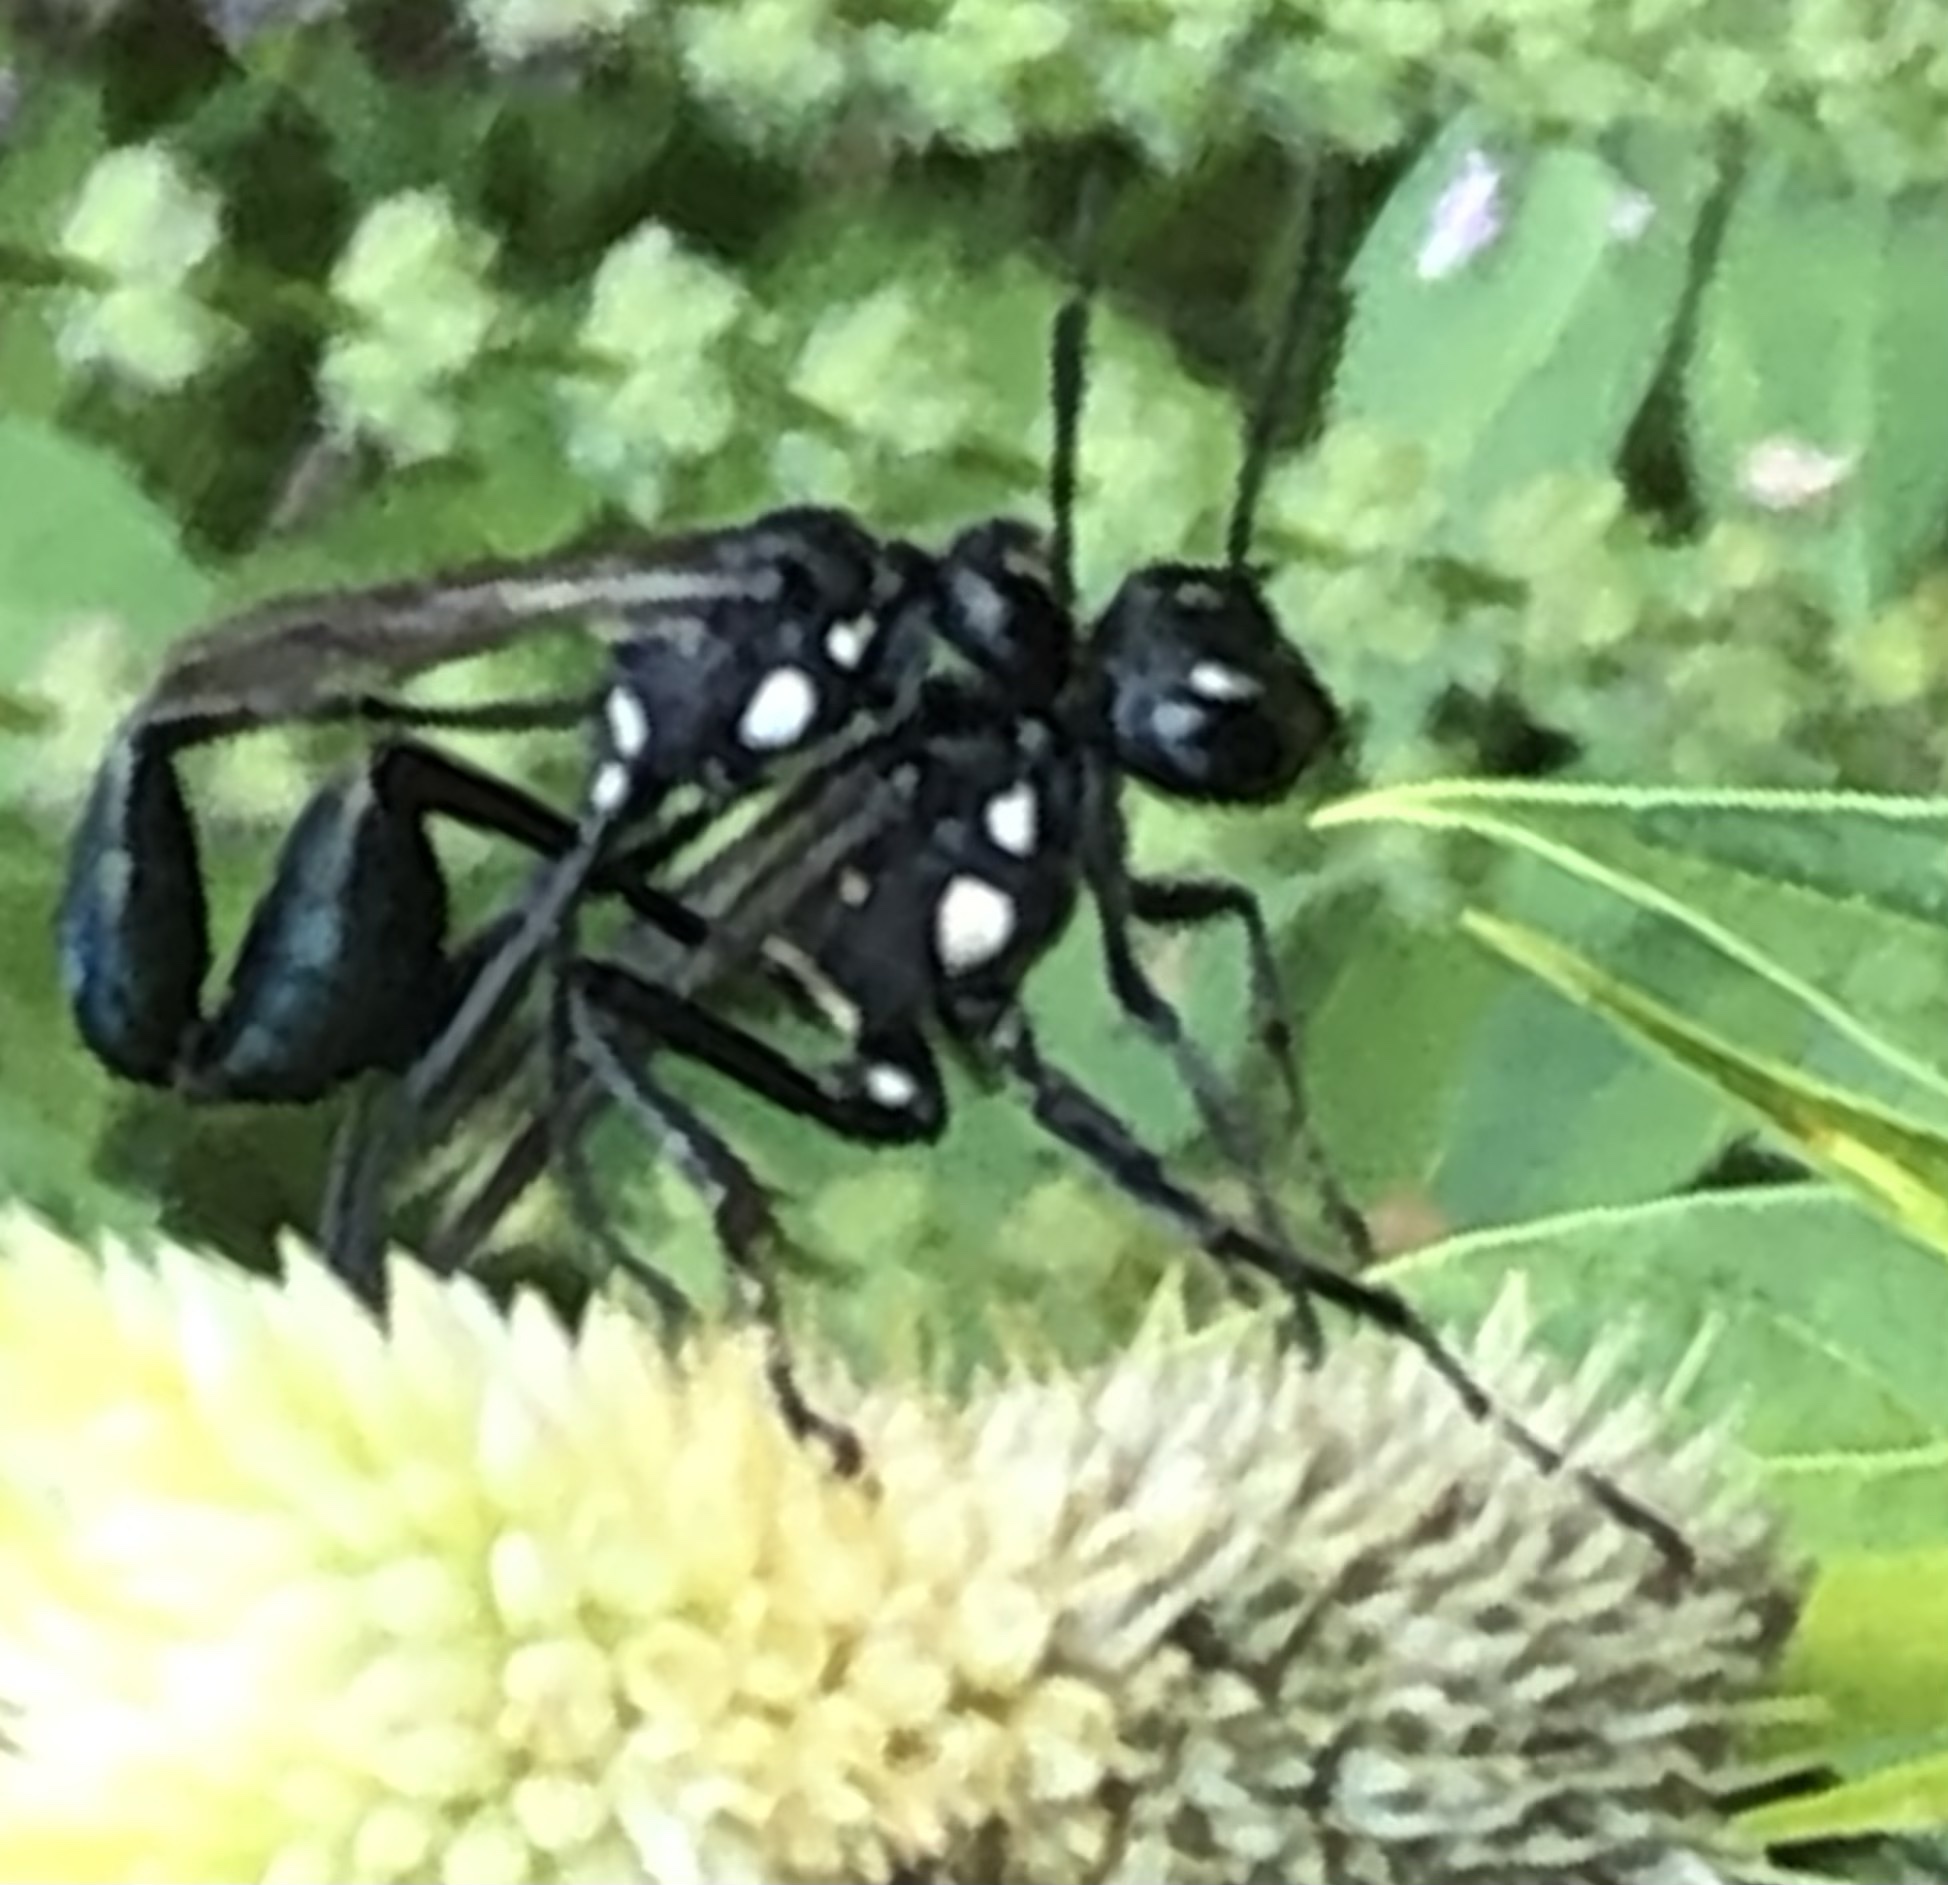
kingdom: Animalia
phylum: Arthropoda
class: Insecta
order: Hymenoptera
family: Sphecidae
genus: Eremnophila
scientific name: Eremnophila aureonotata
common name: Gold-marked thread-waisted wasp
